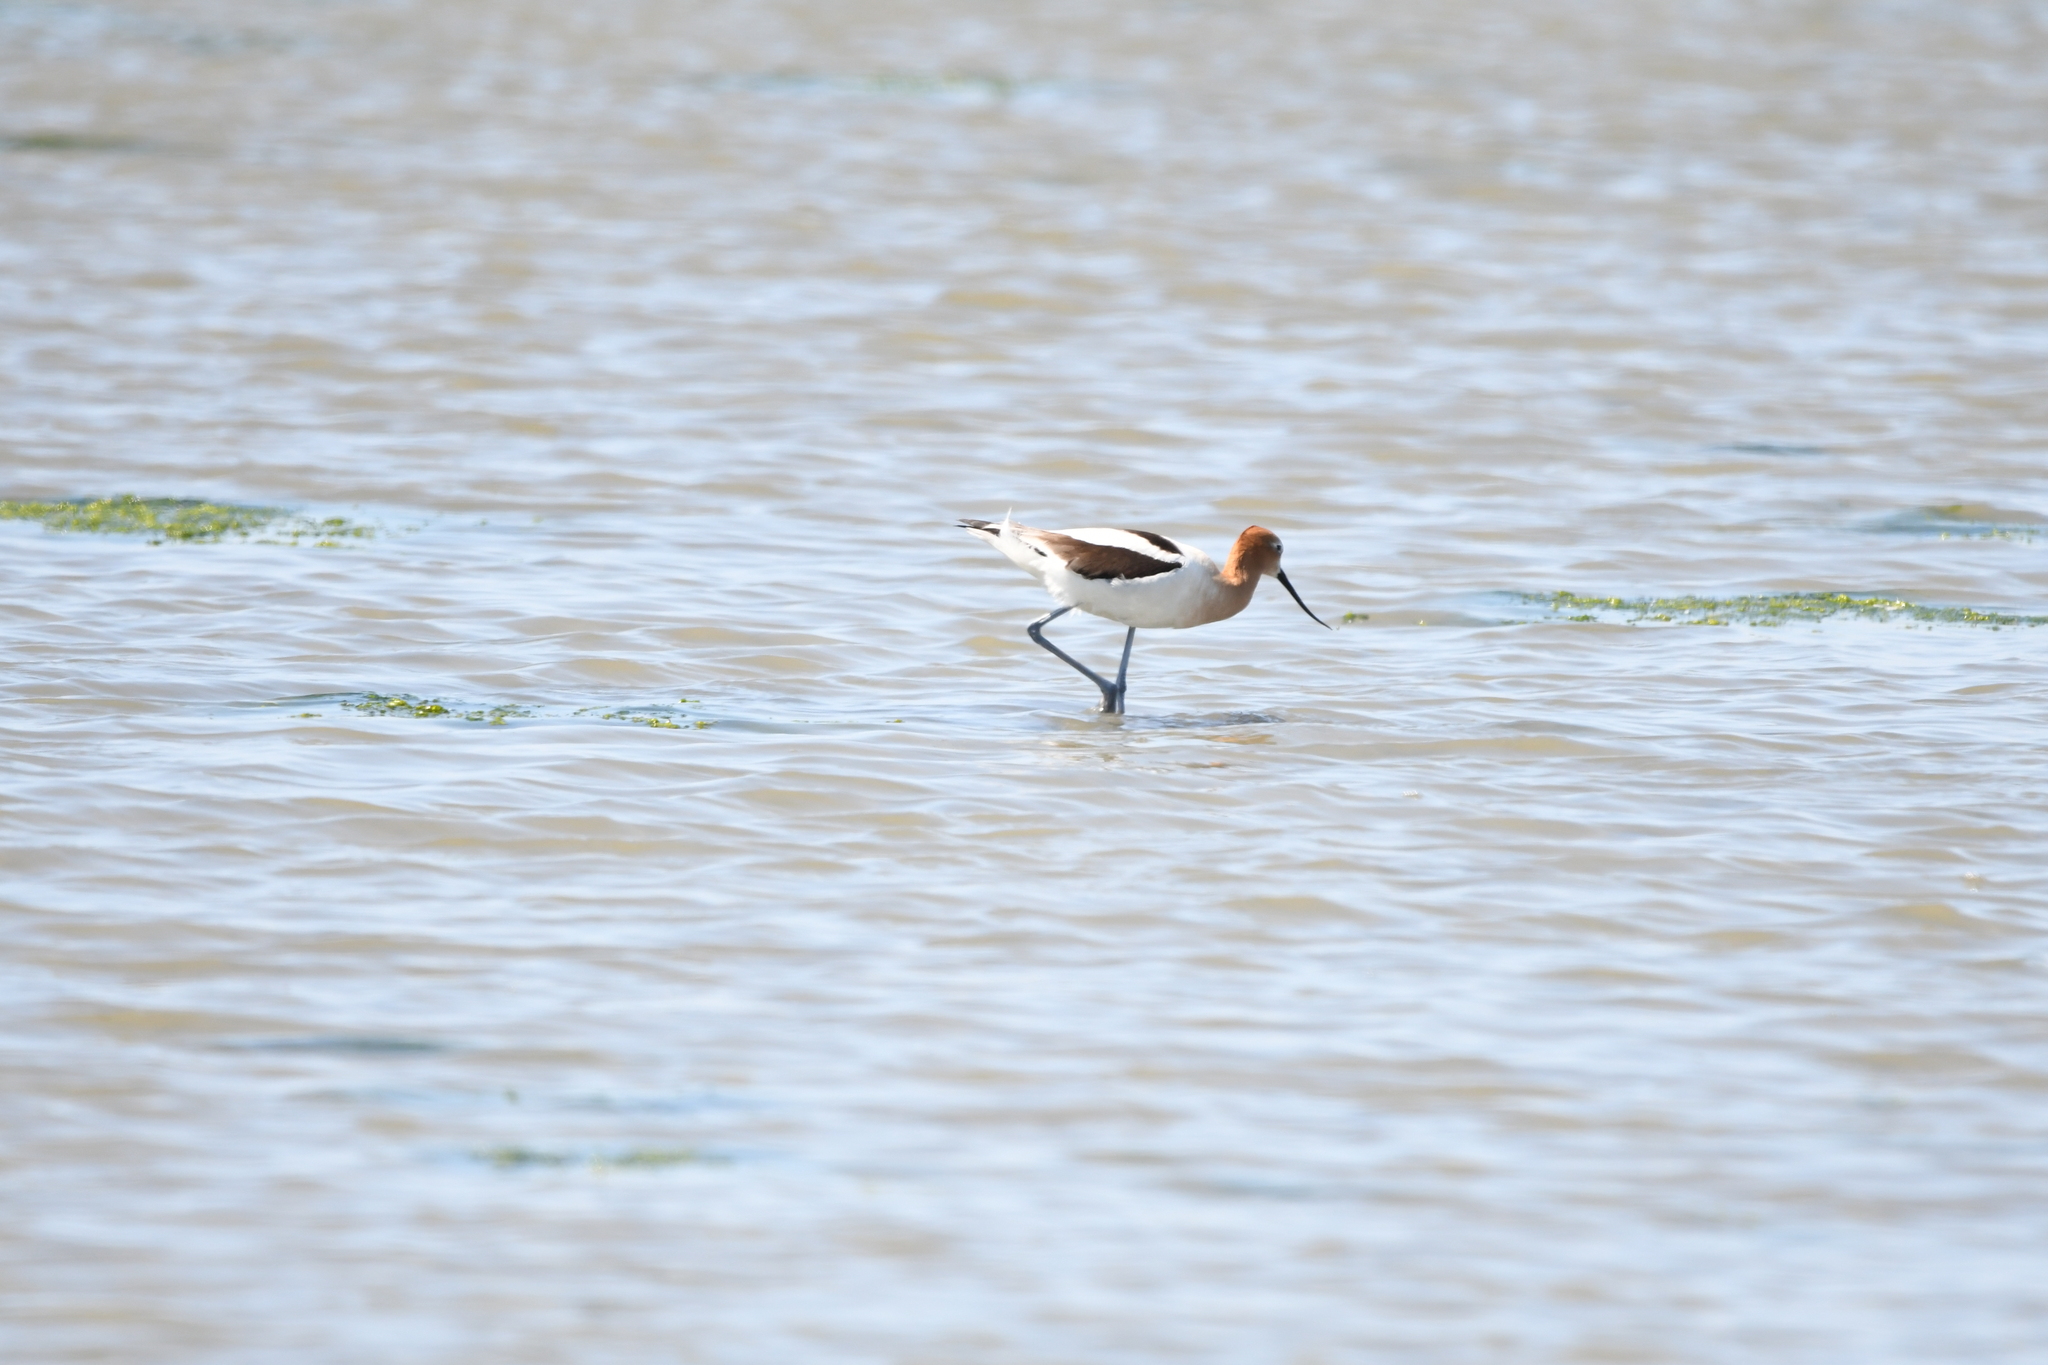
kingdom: Animalia
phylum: Chordata
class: Aves
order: Charadriiformes
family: Recurvirostridae
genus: Recurvirostra
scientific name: Recurvirostra americana
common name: American avocet
